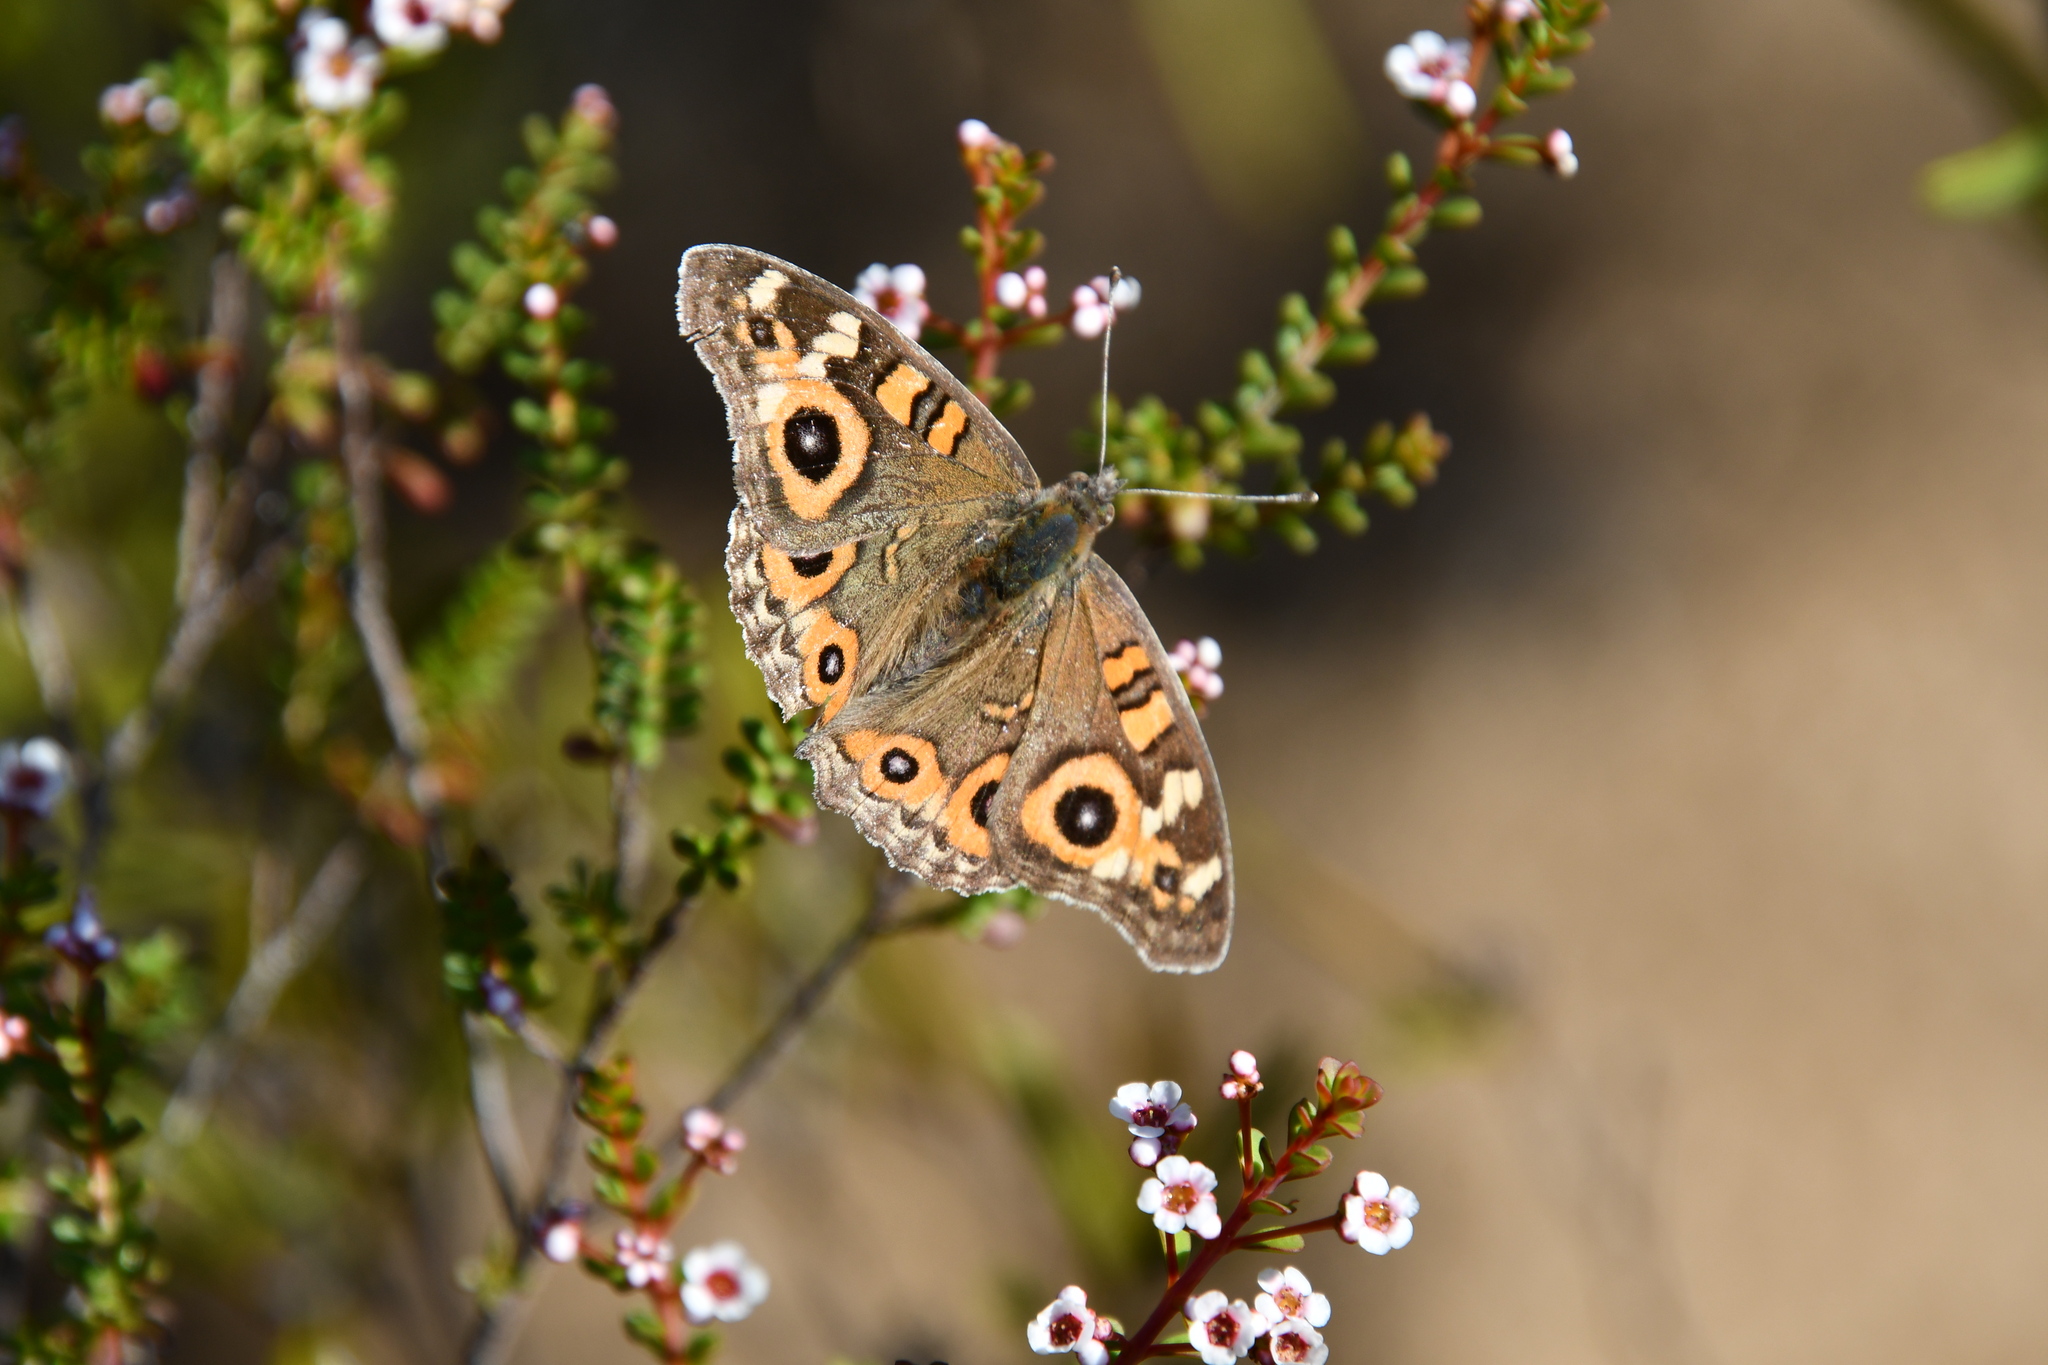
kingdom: Animalia
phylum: Arthropoda
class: Insecta
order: Lepidoptera
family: Nymphalidae
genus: Junonia
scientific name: Junonia villida
